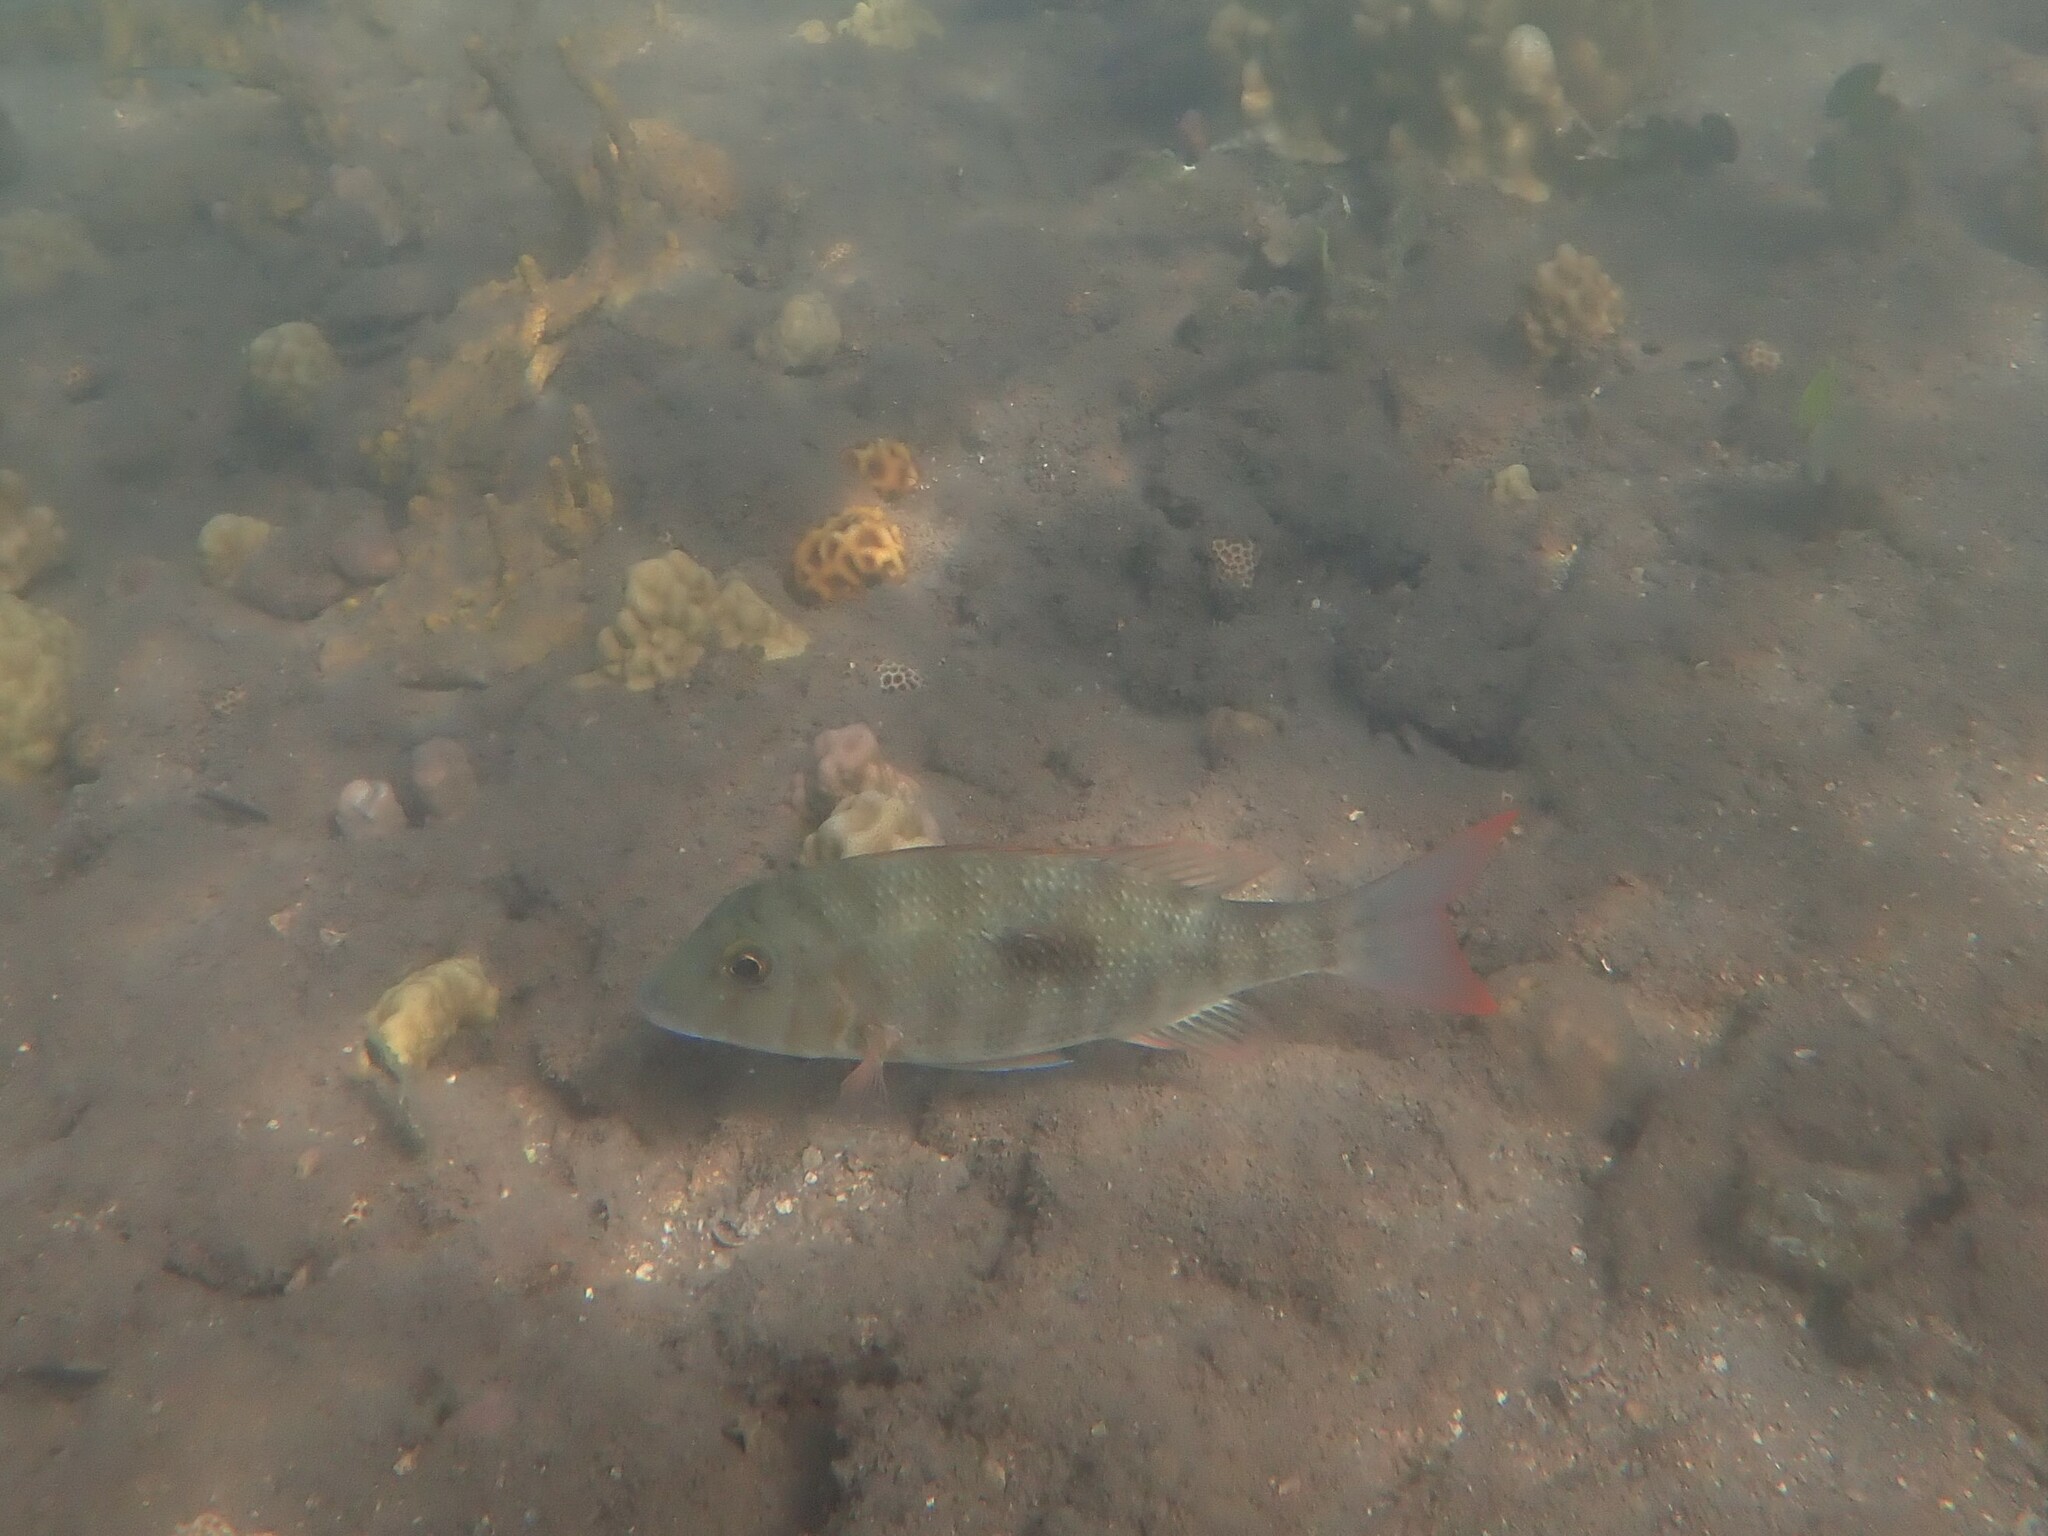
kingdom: Animalia
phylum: Chordata
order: Perciformes
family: Lethrinidae
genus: Lethrinus
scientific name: Lethrinus harak
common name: Blackspot emperor
